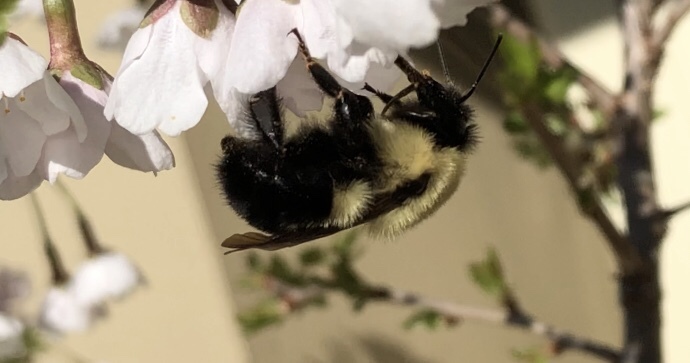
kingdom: Animalia
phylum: Arthropoda
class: Insecta
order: Hymenoptera
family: Apidae
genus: Bombus
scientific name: Bombus
